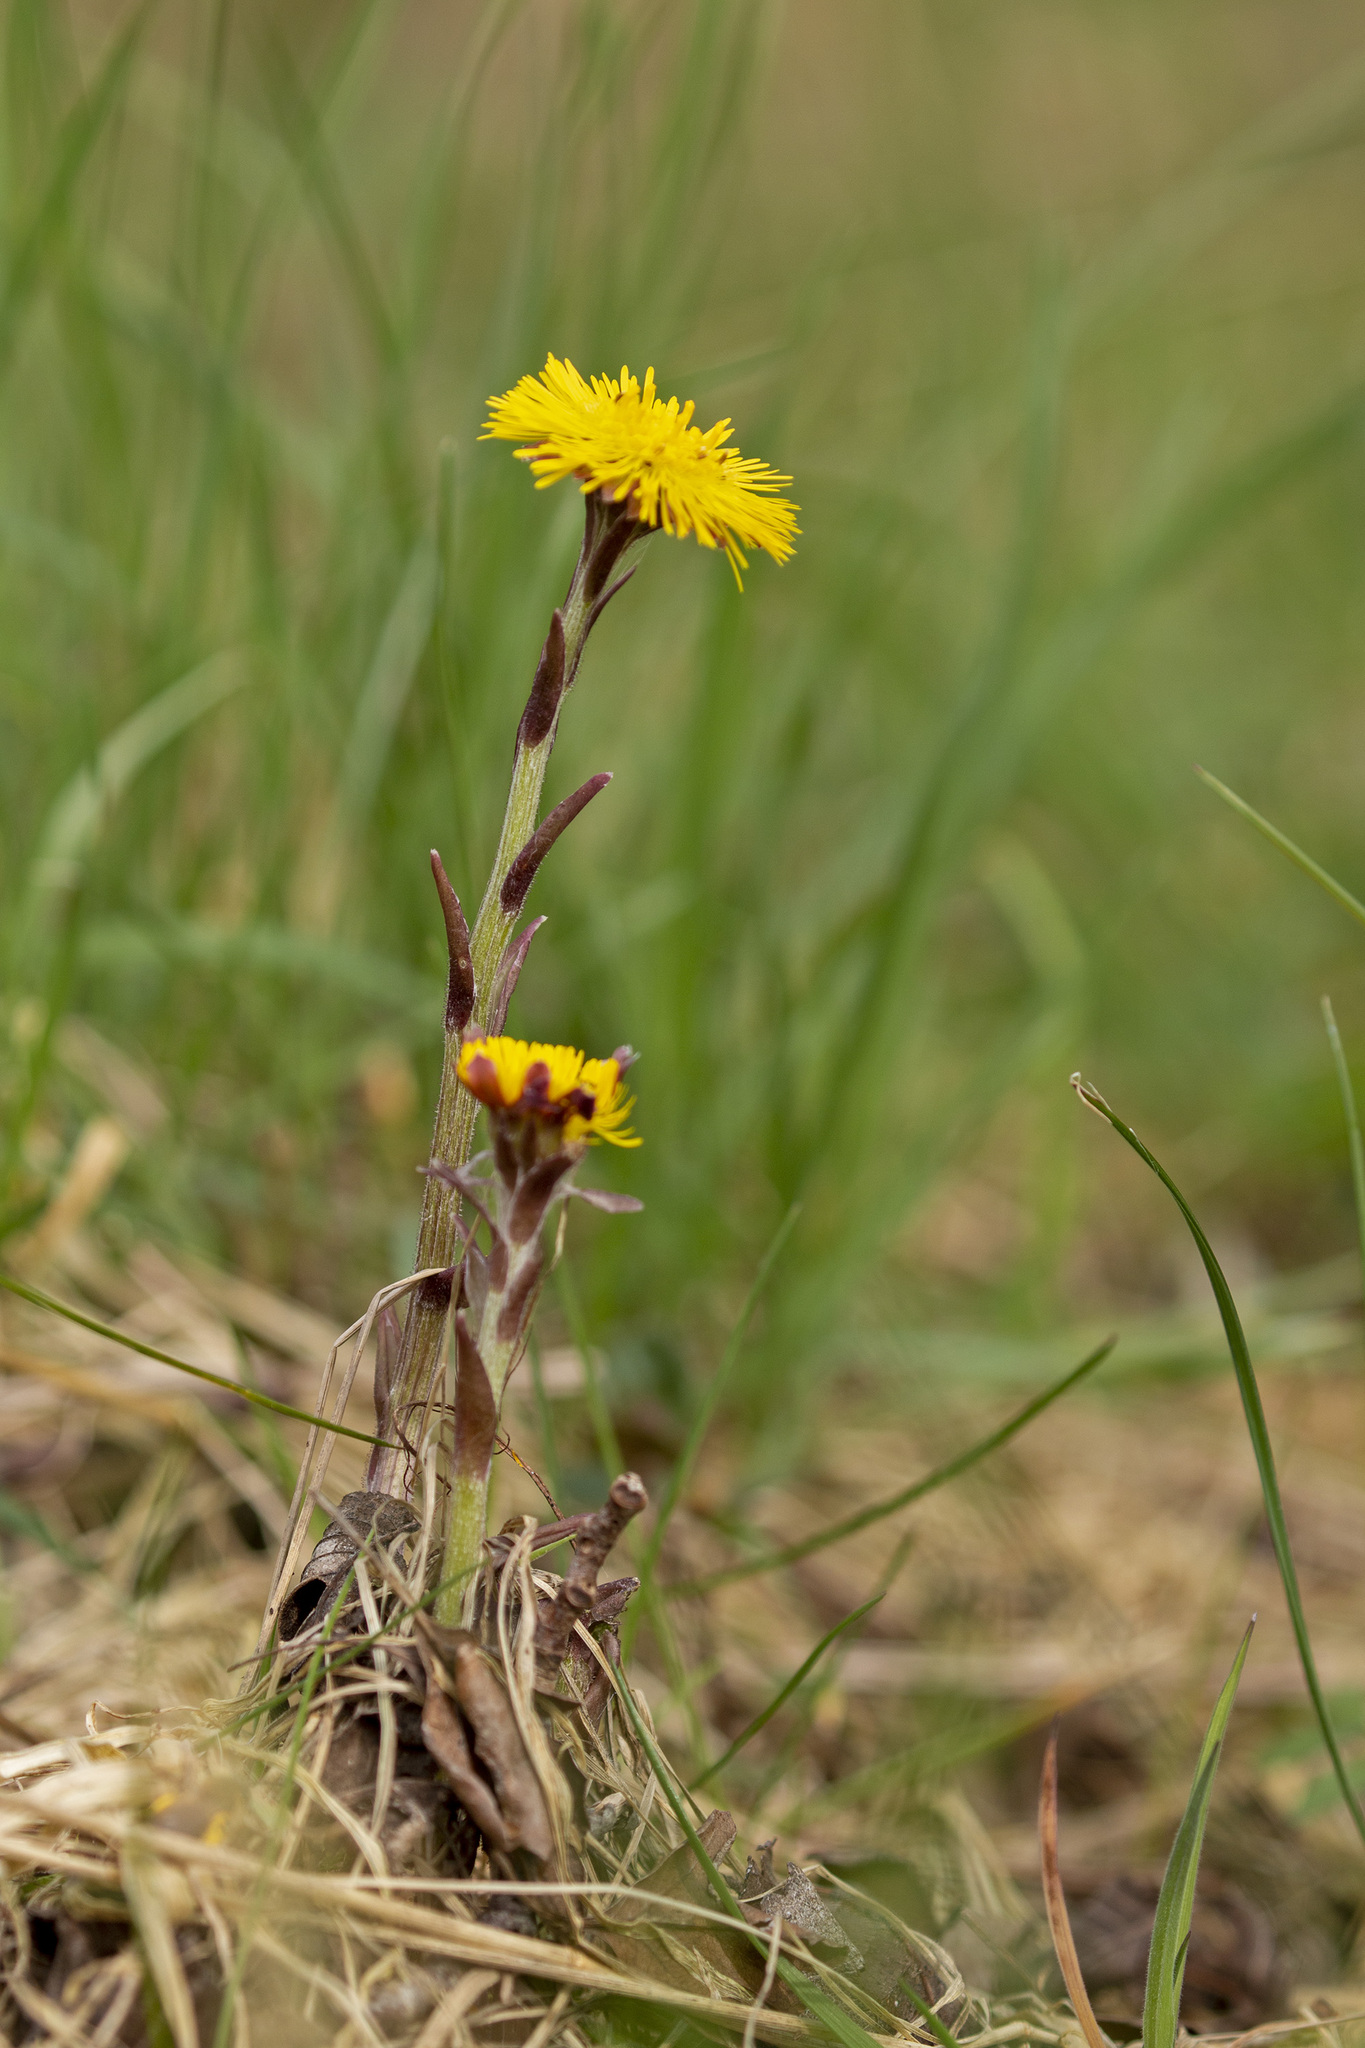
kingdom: Plantae
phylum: Tracheophyta
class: Magnoliopsida
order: Asterales
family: Asteraceae
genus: Tussilago
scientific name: Tussilago farfara
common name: Coltsfoot
